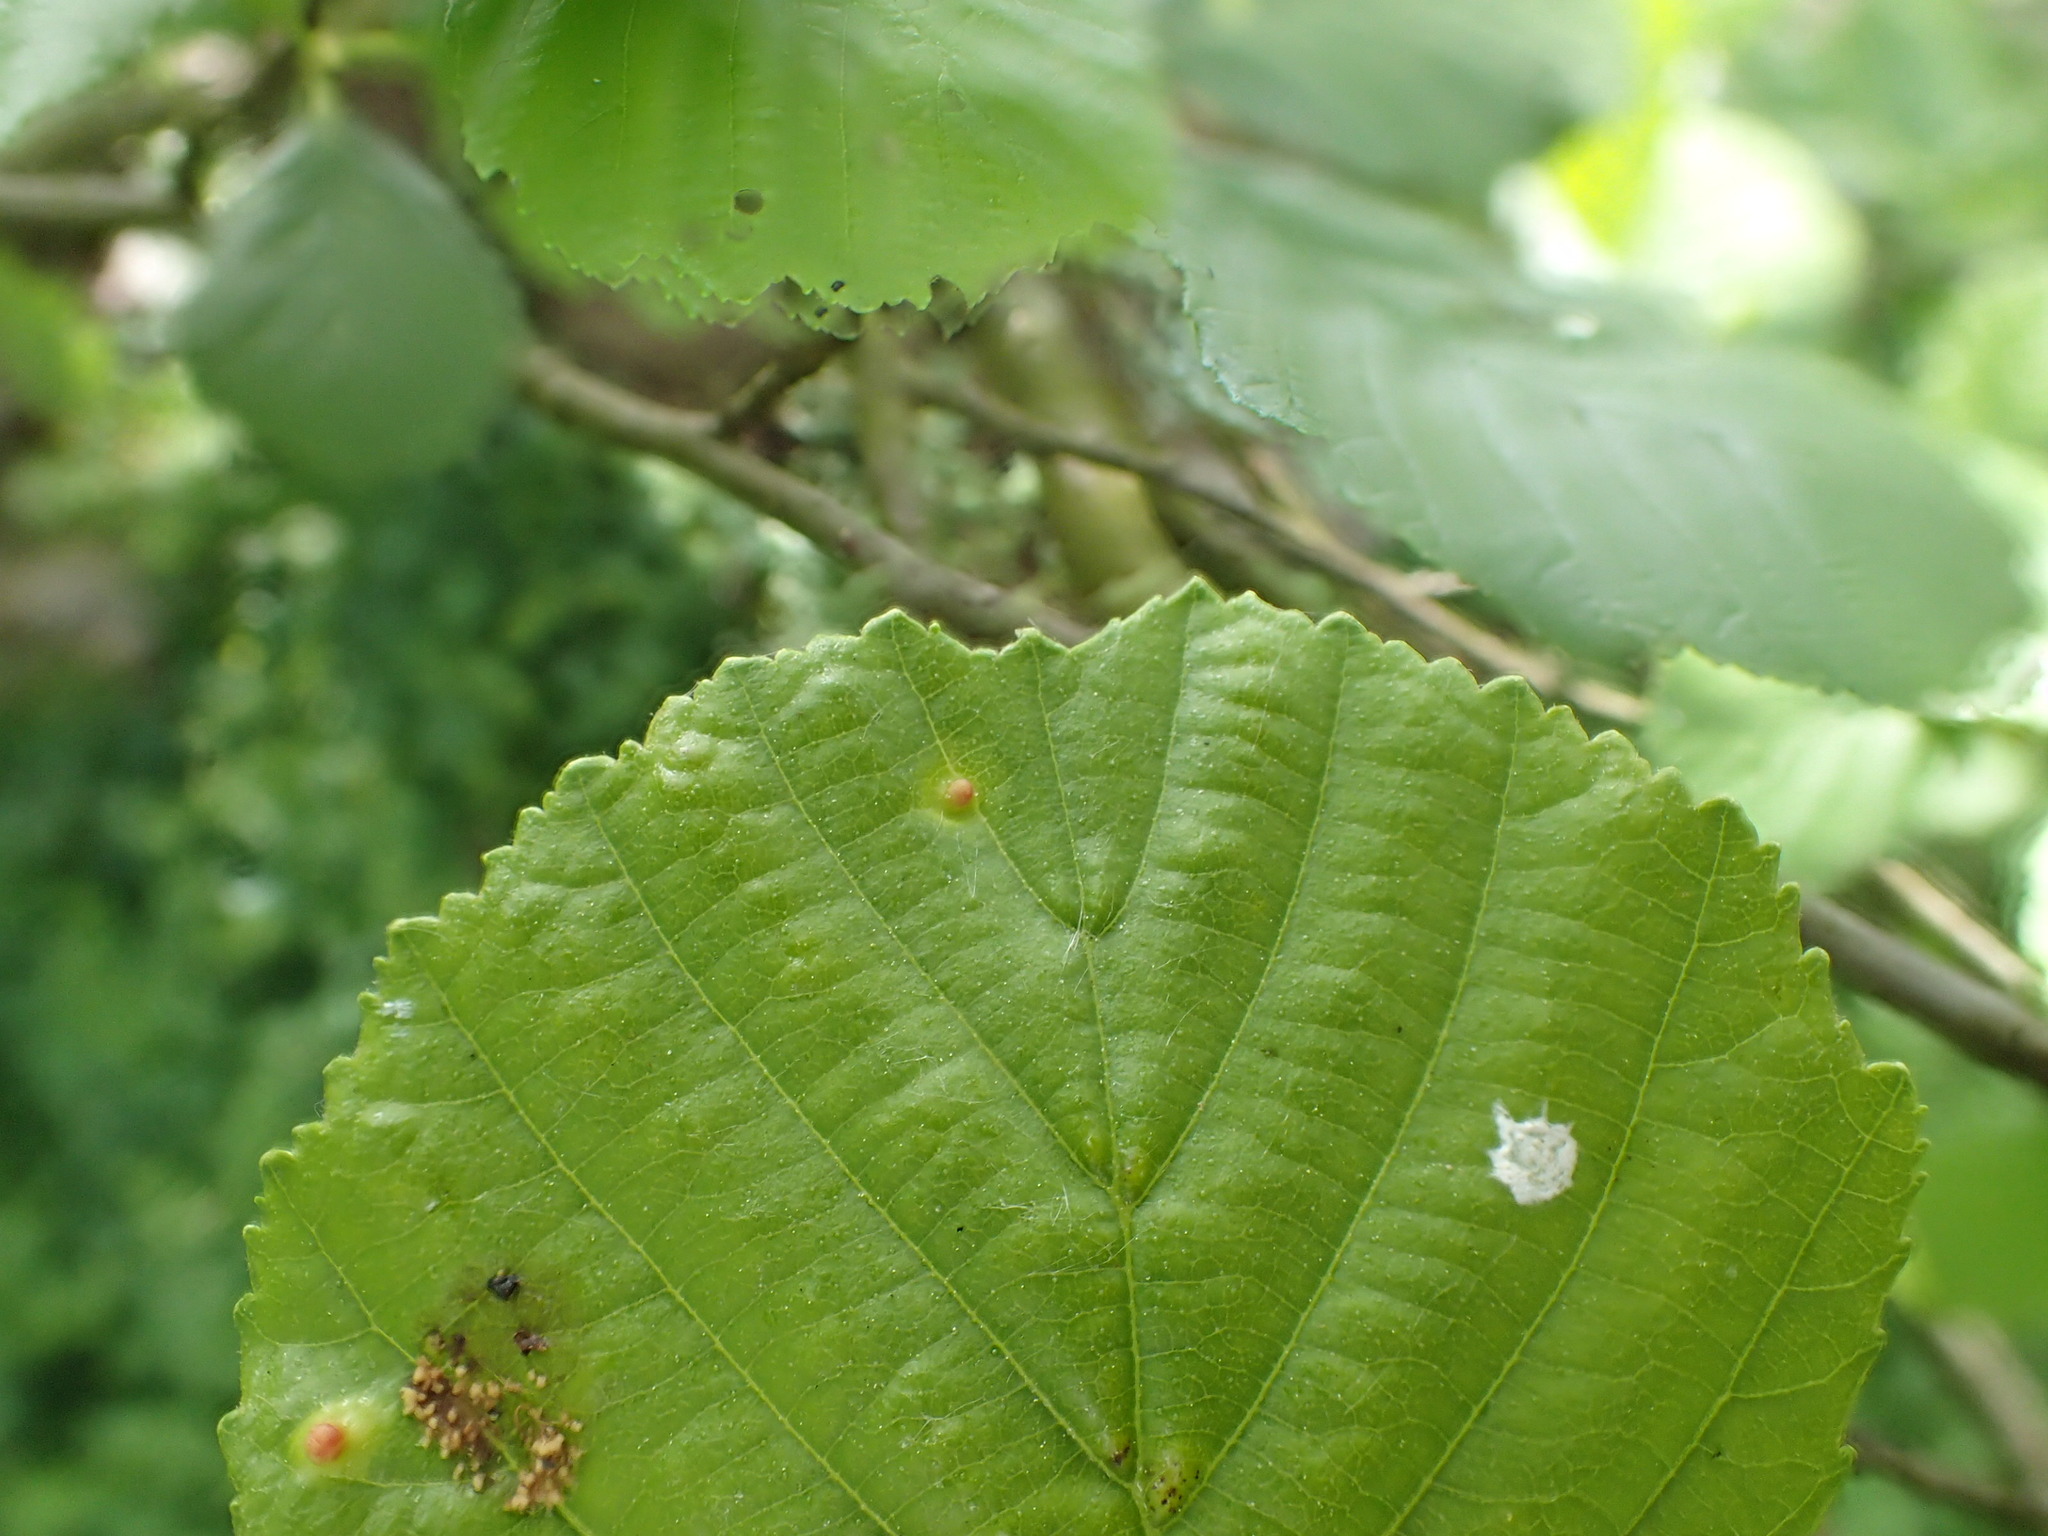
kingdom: Animalia
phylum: Arthropoda
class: Arachnida
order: Trombidiformes
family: Eriophyidae
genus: Eriophyes
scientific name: Eriophyes laevis
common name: Alder leaf gall mite
